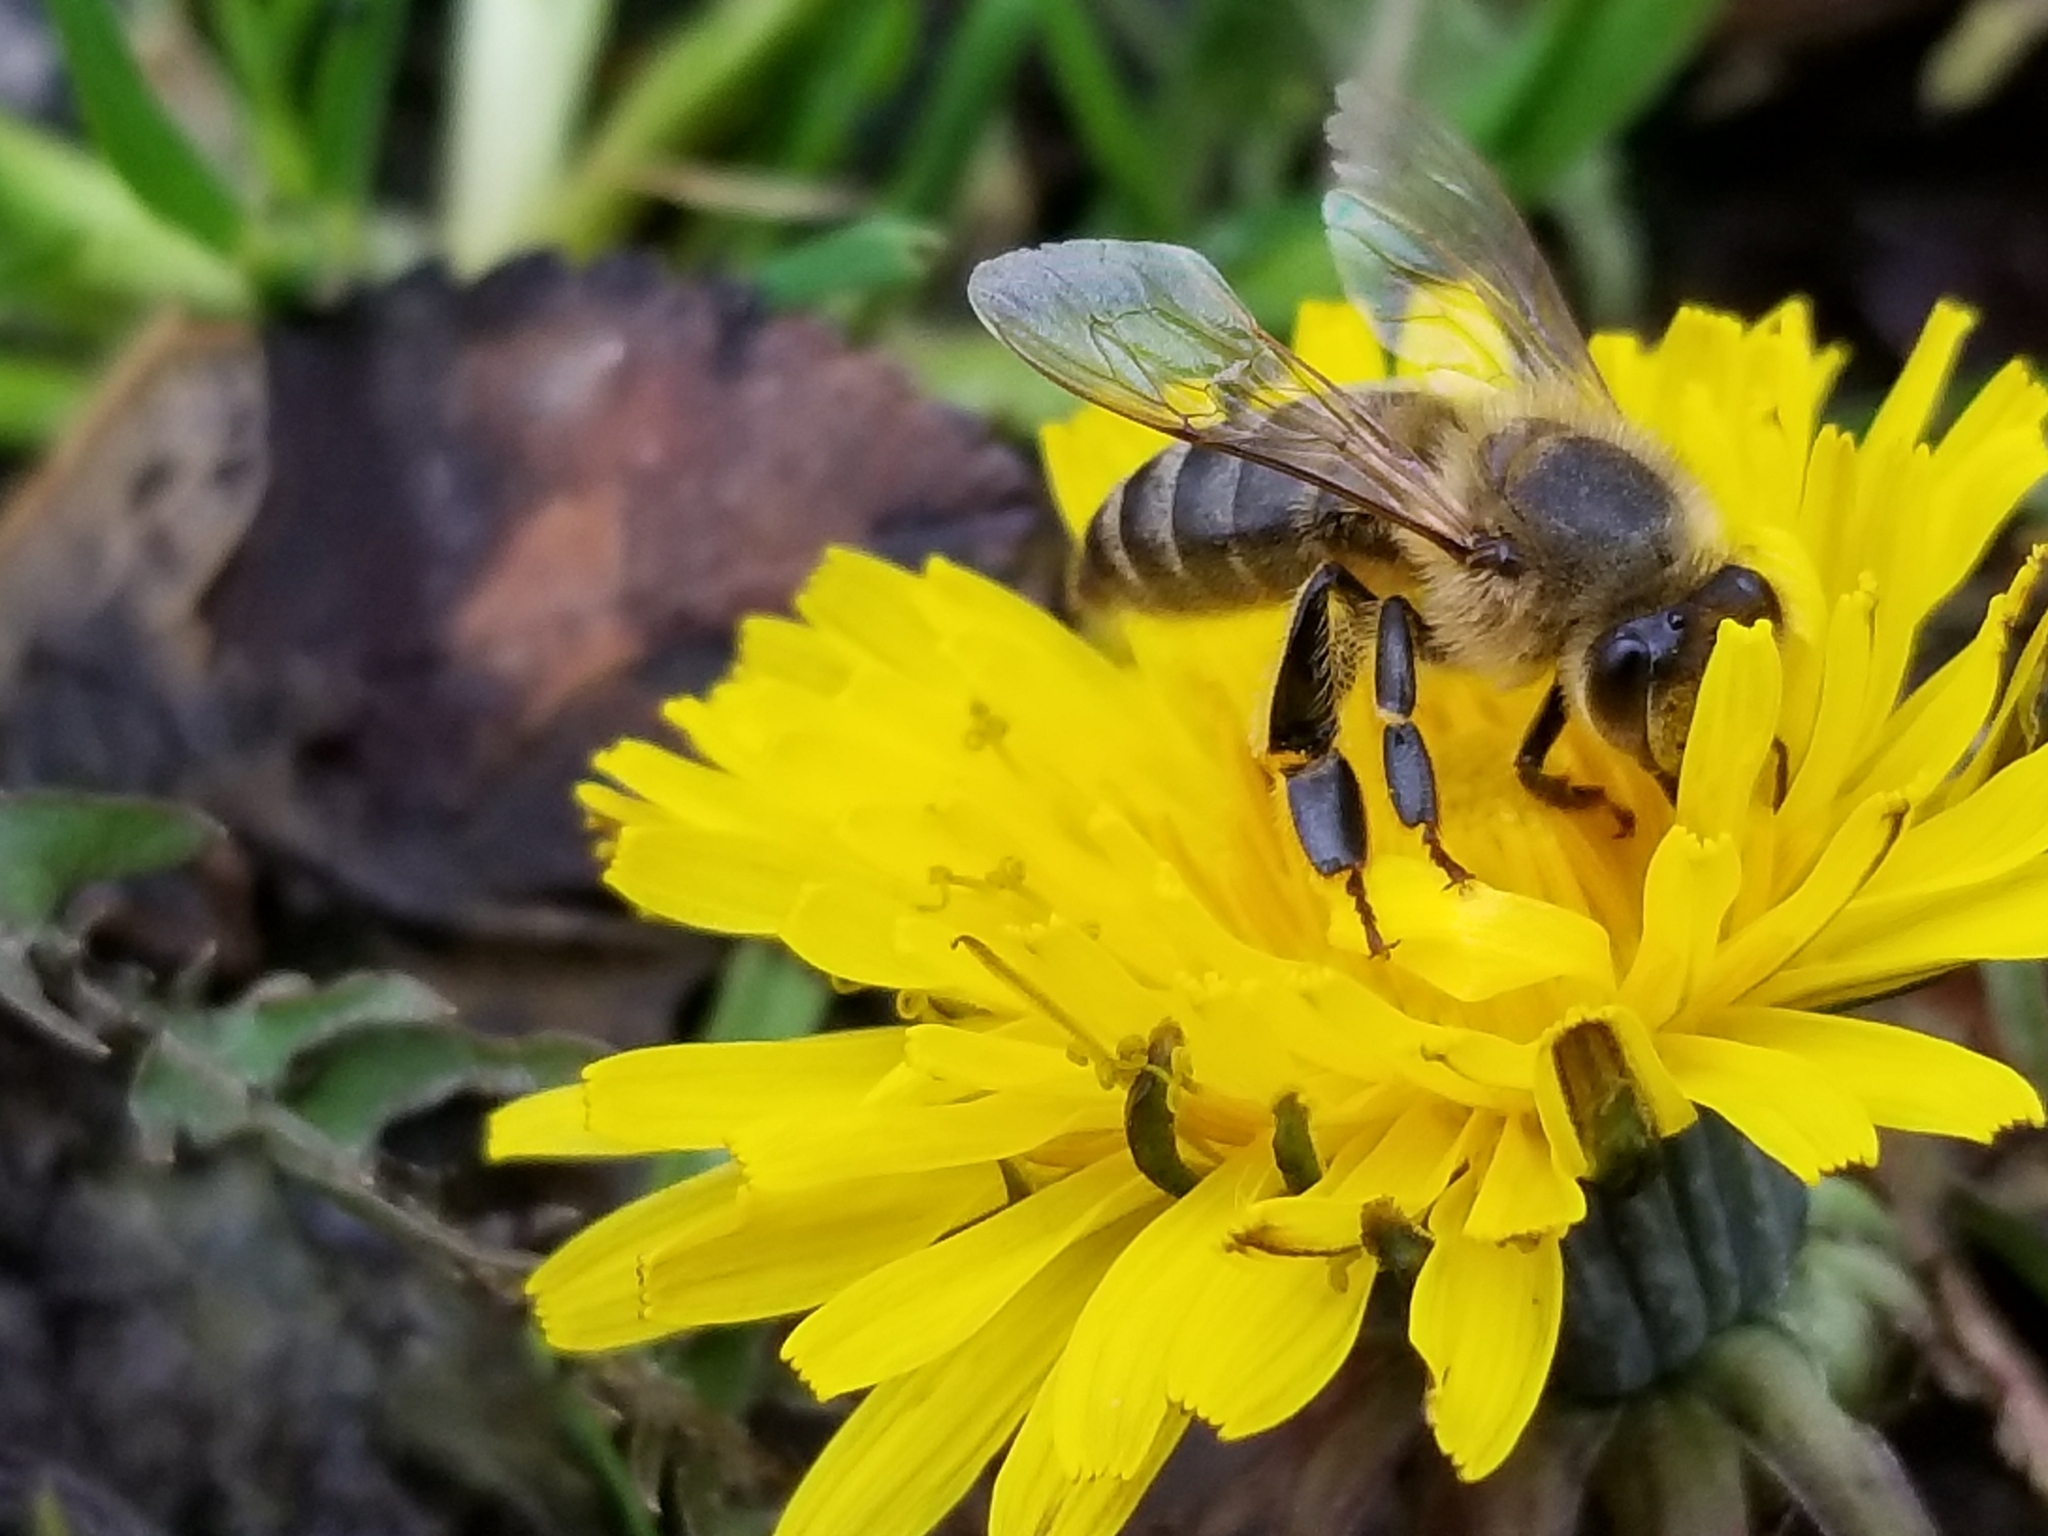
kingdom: Animalia
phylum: Arthropoda
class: Insecta
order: Hymenoptera
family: Apidae
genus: Apis
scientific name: Apis mellifera
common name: Honey bee
